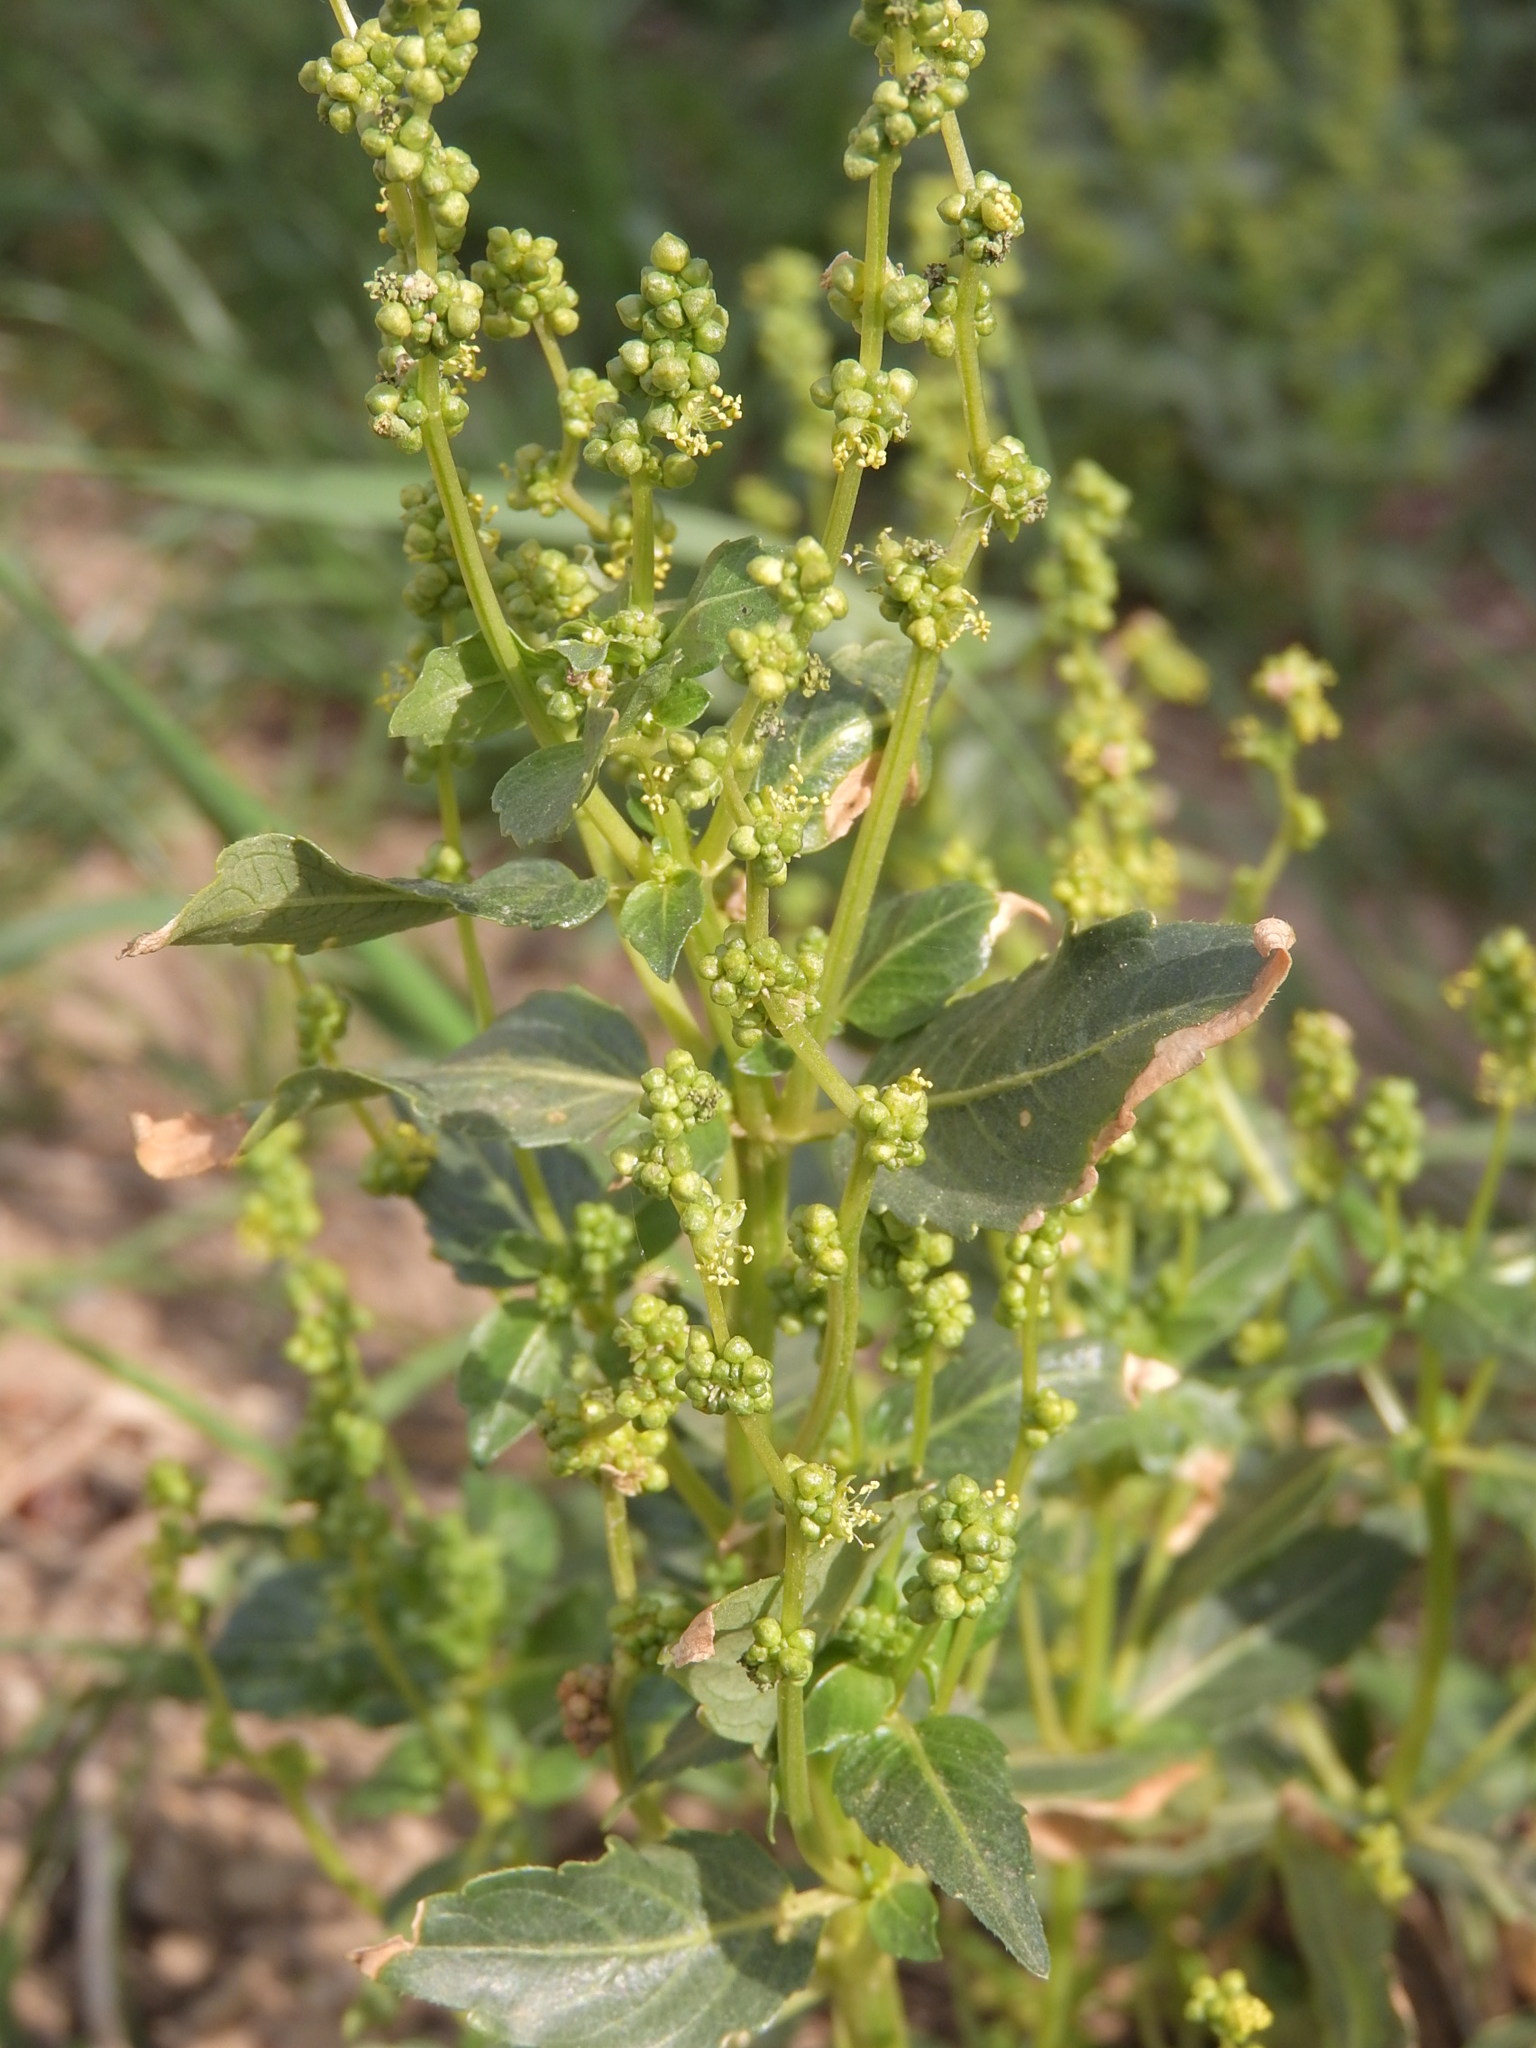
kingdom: Plantae
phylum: Tracheophyta
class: Magnoliopsida
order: Malpighiales
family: Euphorbiaceae
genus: Mercurialis
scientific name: Mercurialis annua
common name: Annual mercury
